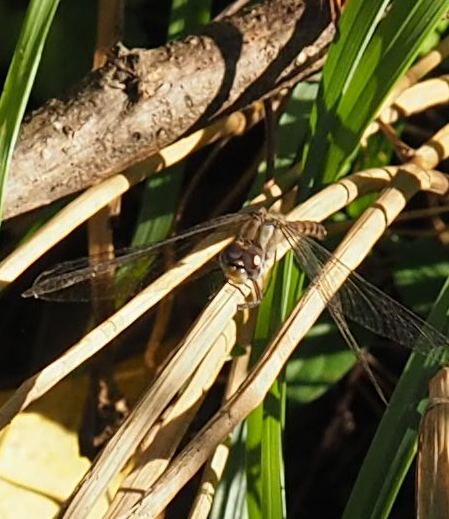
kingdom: Animalia
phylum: Arthropoda
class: Insecta
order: Odonata
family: Libellulidae
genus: Sympetrum
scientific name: Sympetrum ambiguum
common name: Blue-faced meadowhawk
